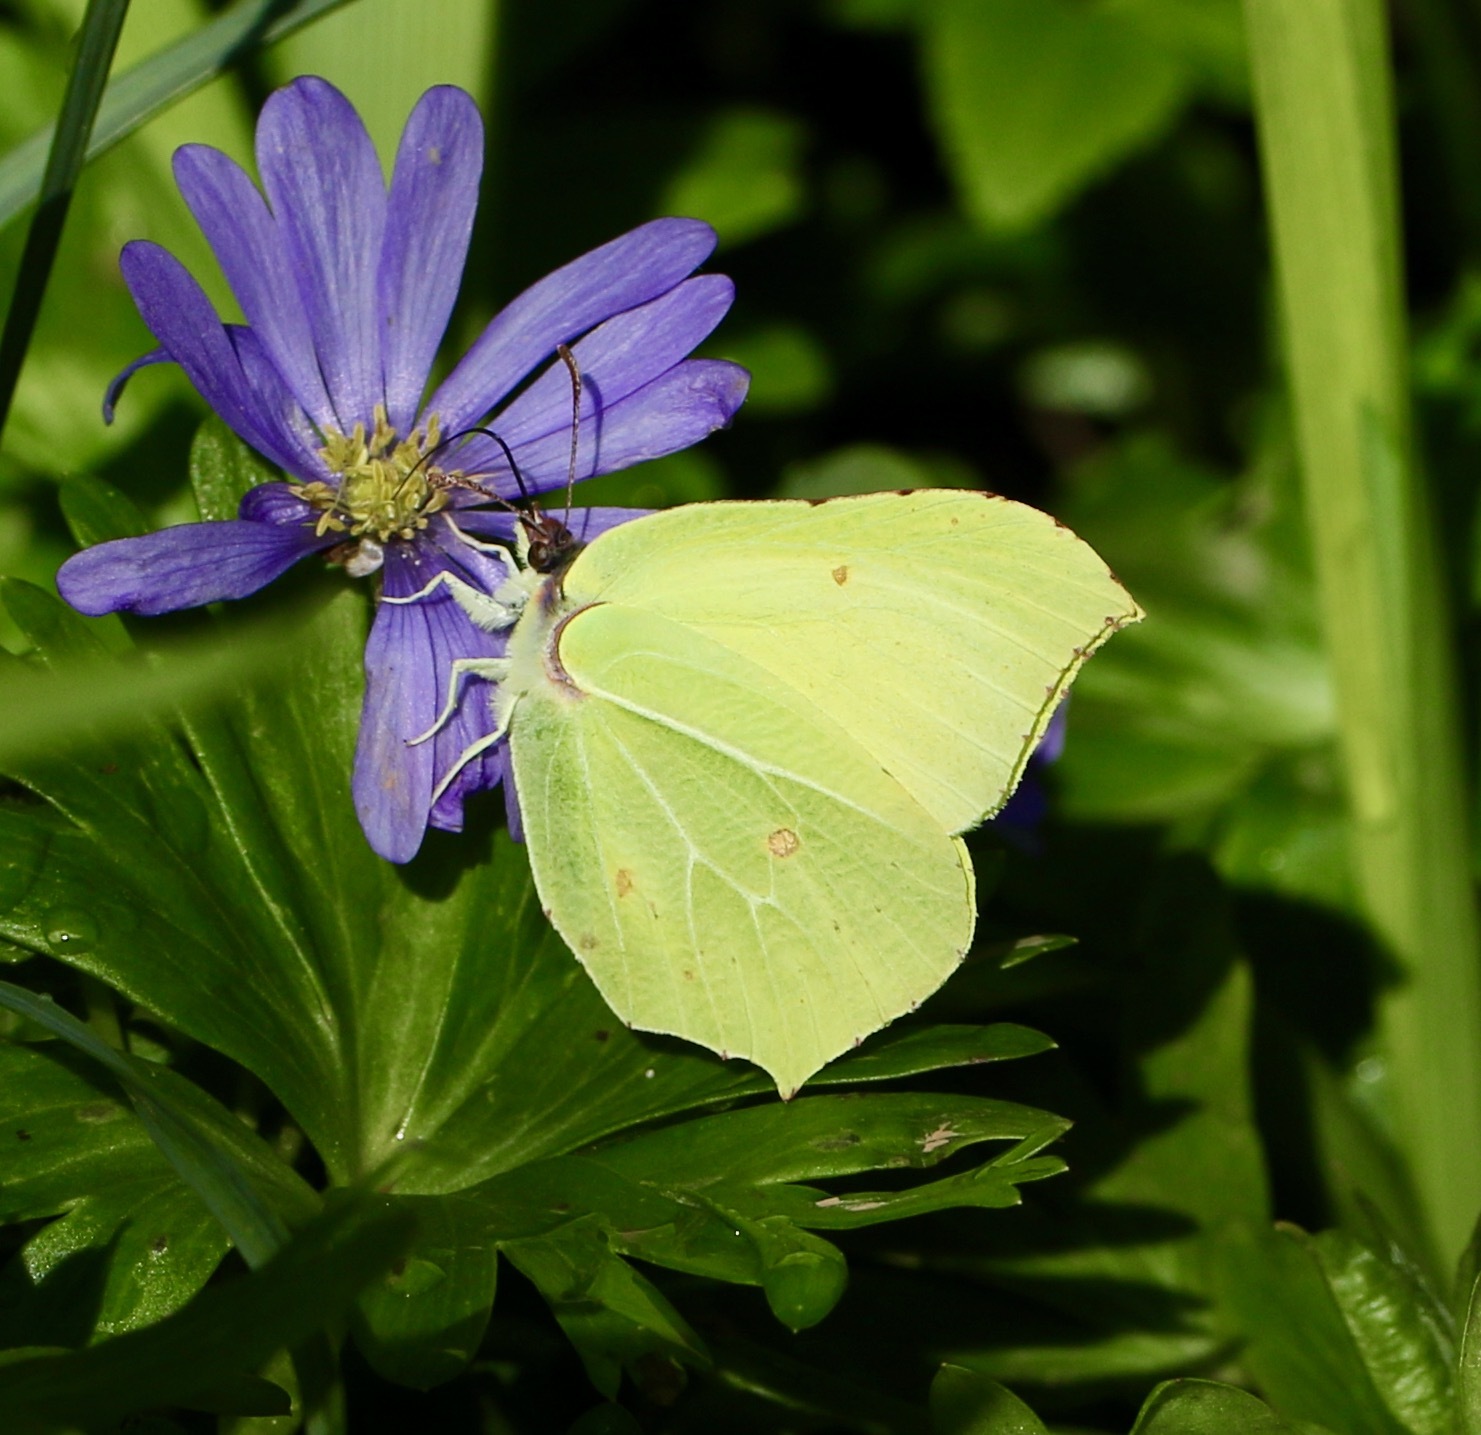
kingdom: Animalia
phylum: Arthropoda
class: Insecta
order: Lepidoptera
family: Pieridae
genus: Gonepteryx
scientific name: Gonepteryx rhamni
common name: Brimstone
